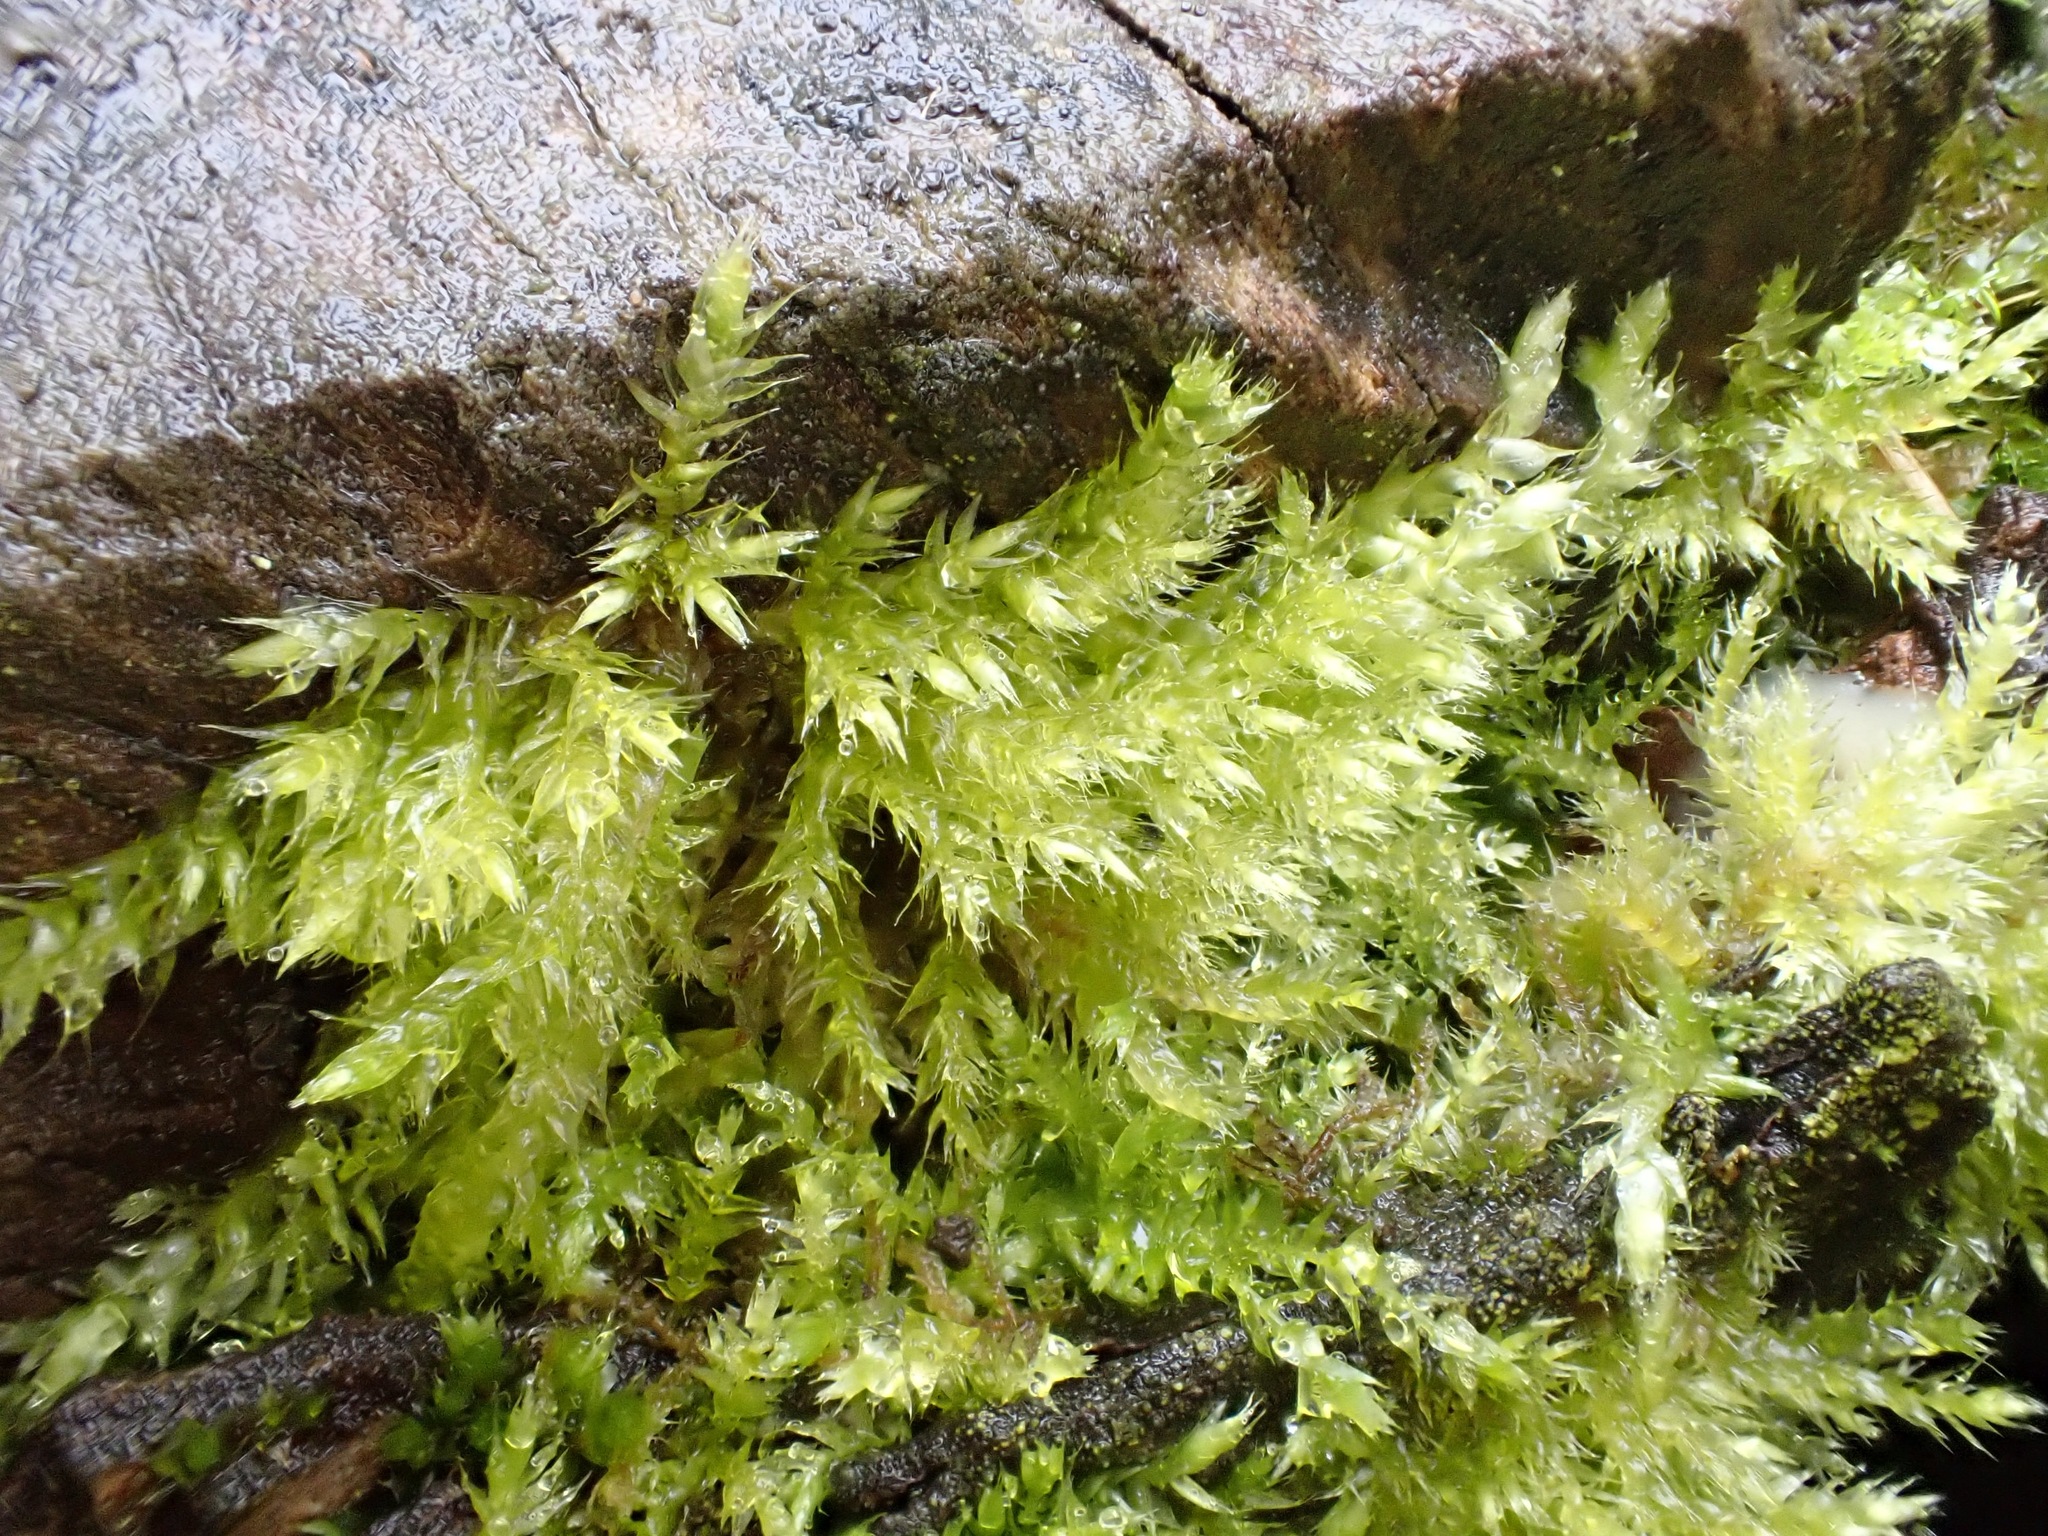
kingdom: Plantae
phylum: Bryophyta
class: Bryopsida
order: Hypnales
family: Brachytheciaceae
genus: Brachythecium
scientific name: Brachythecium rutabulum
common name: Rough-stalked feather-moss
